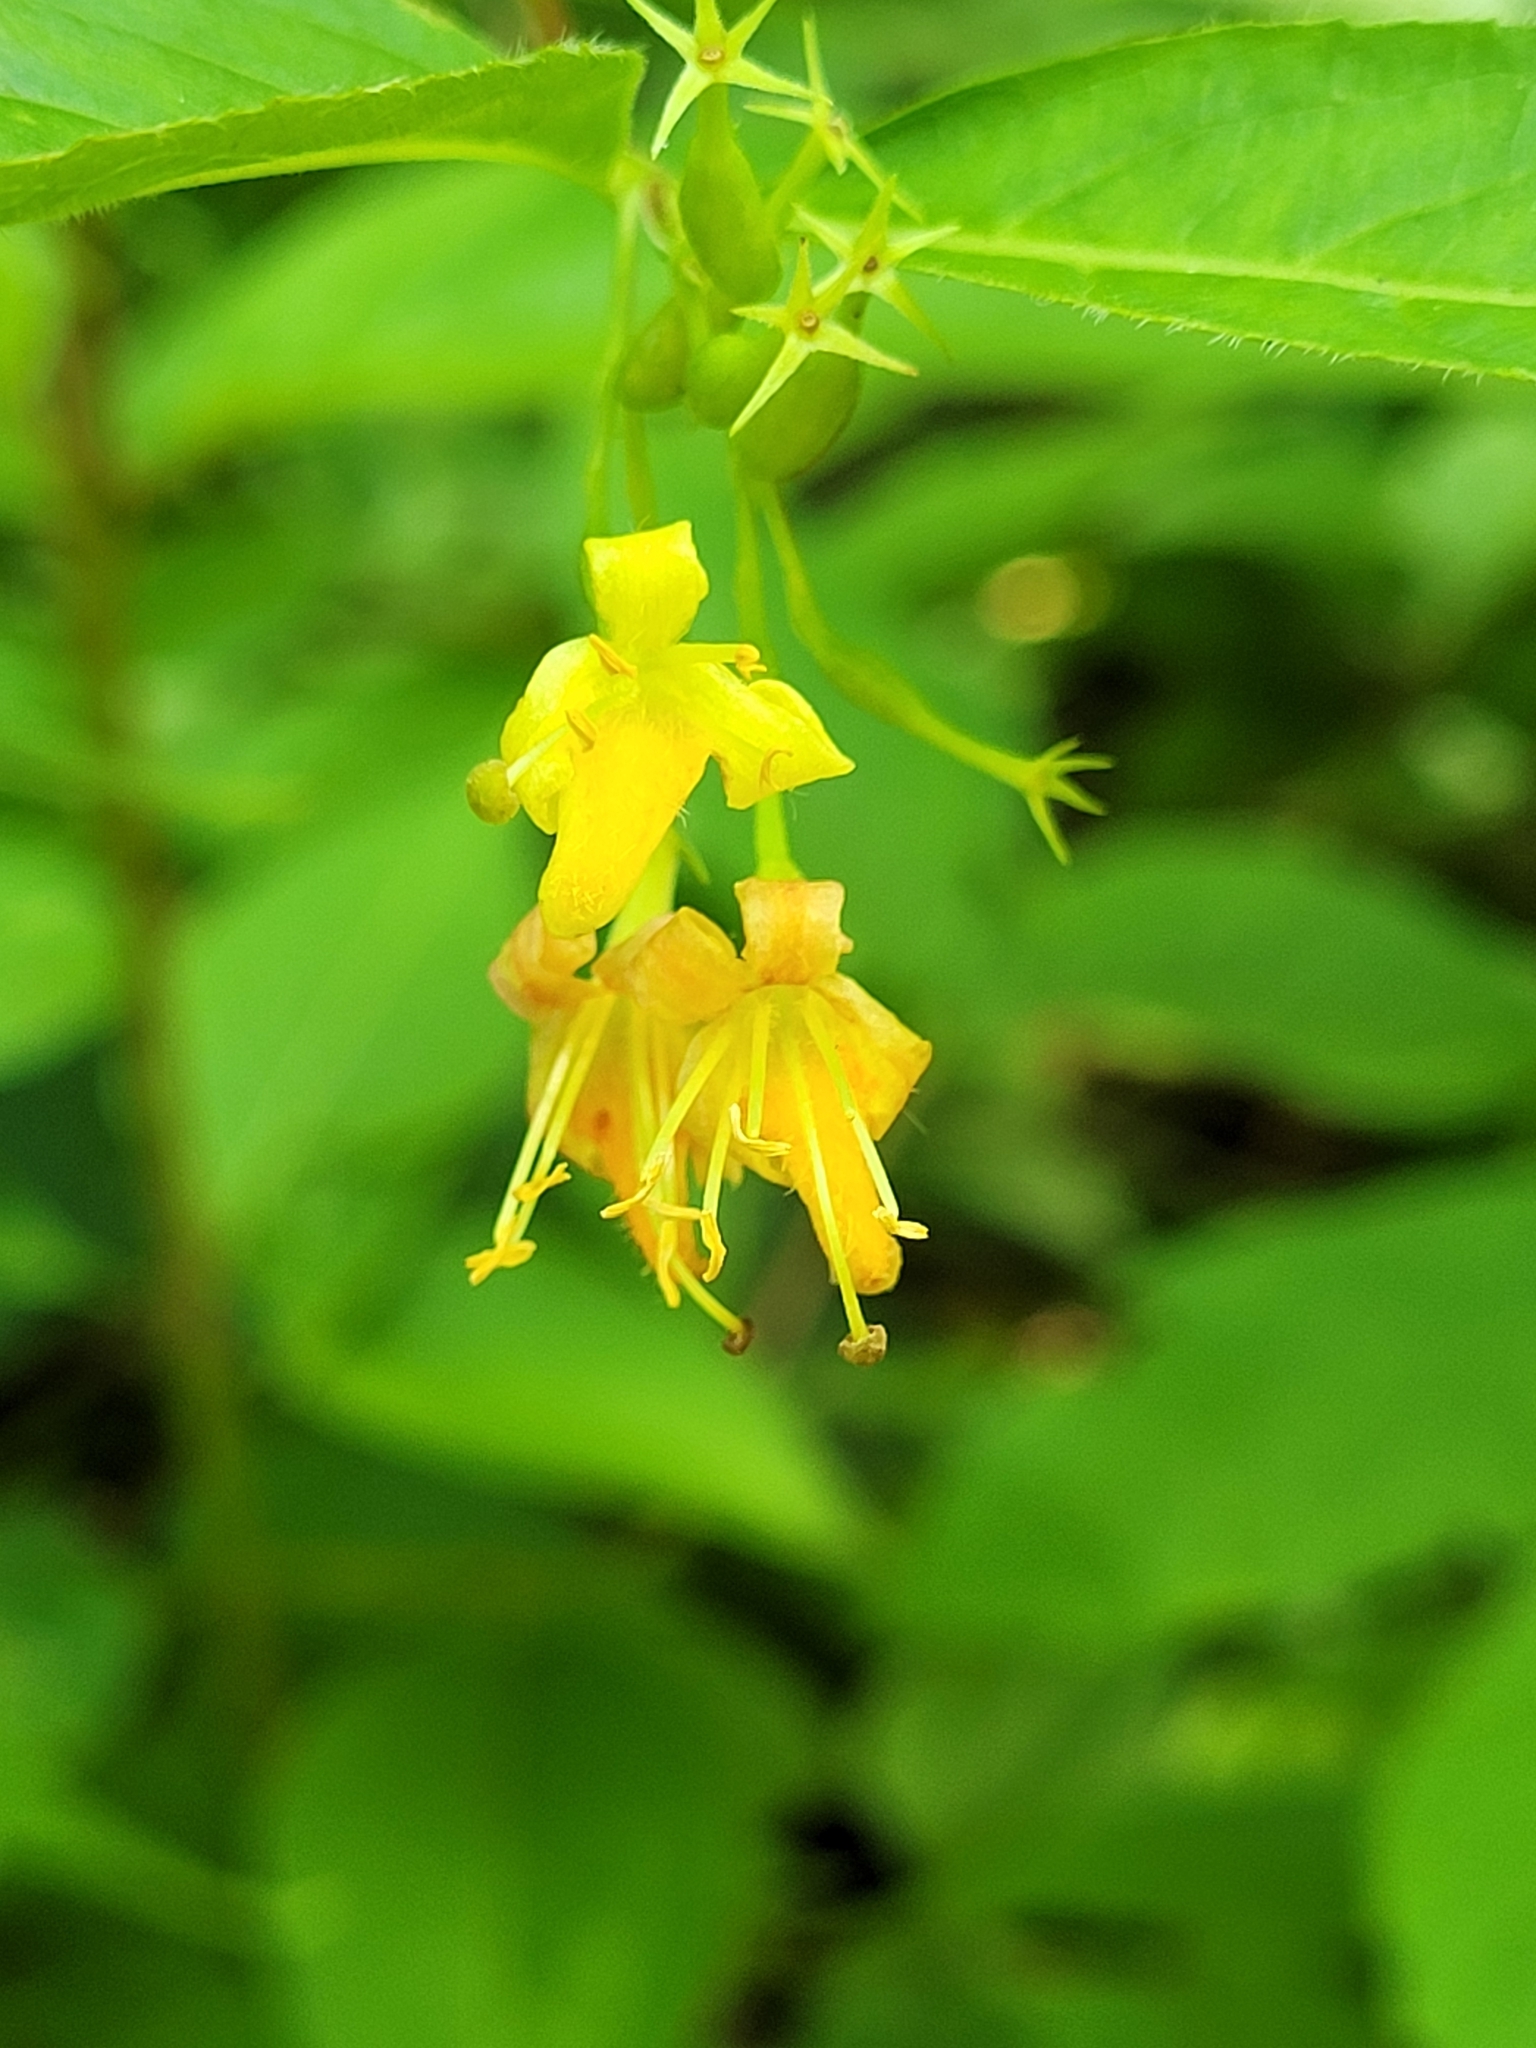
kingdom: Plantae
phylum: Tracheophyta
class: Magnoliopsida
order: Dipsacales
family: Caprifoliaceae
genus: Diervilla
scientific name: Diervilla lonicera
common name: Bush-honeysuckle
